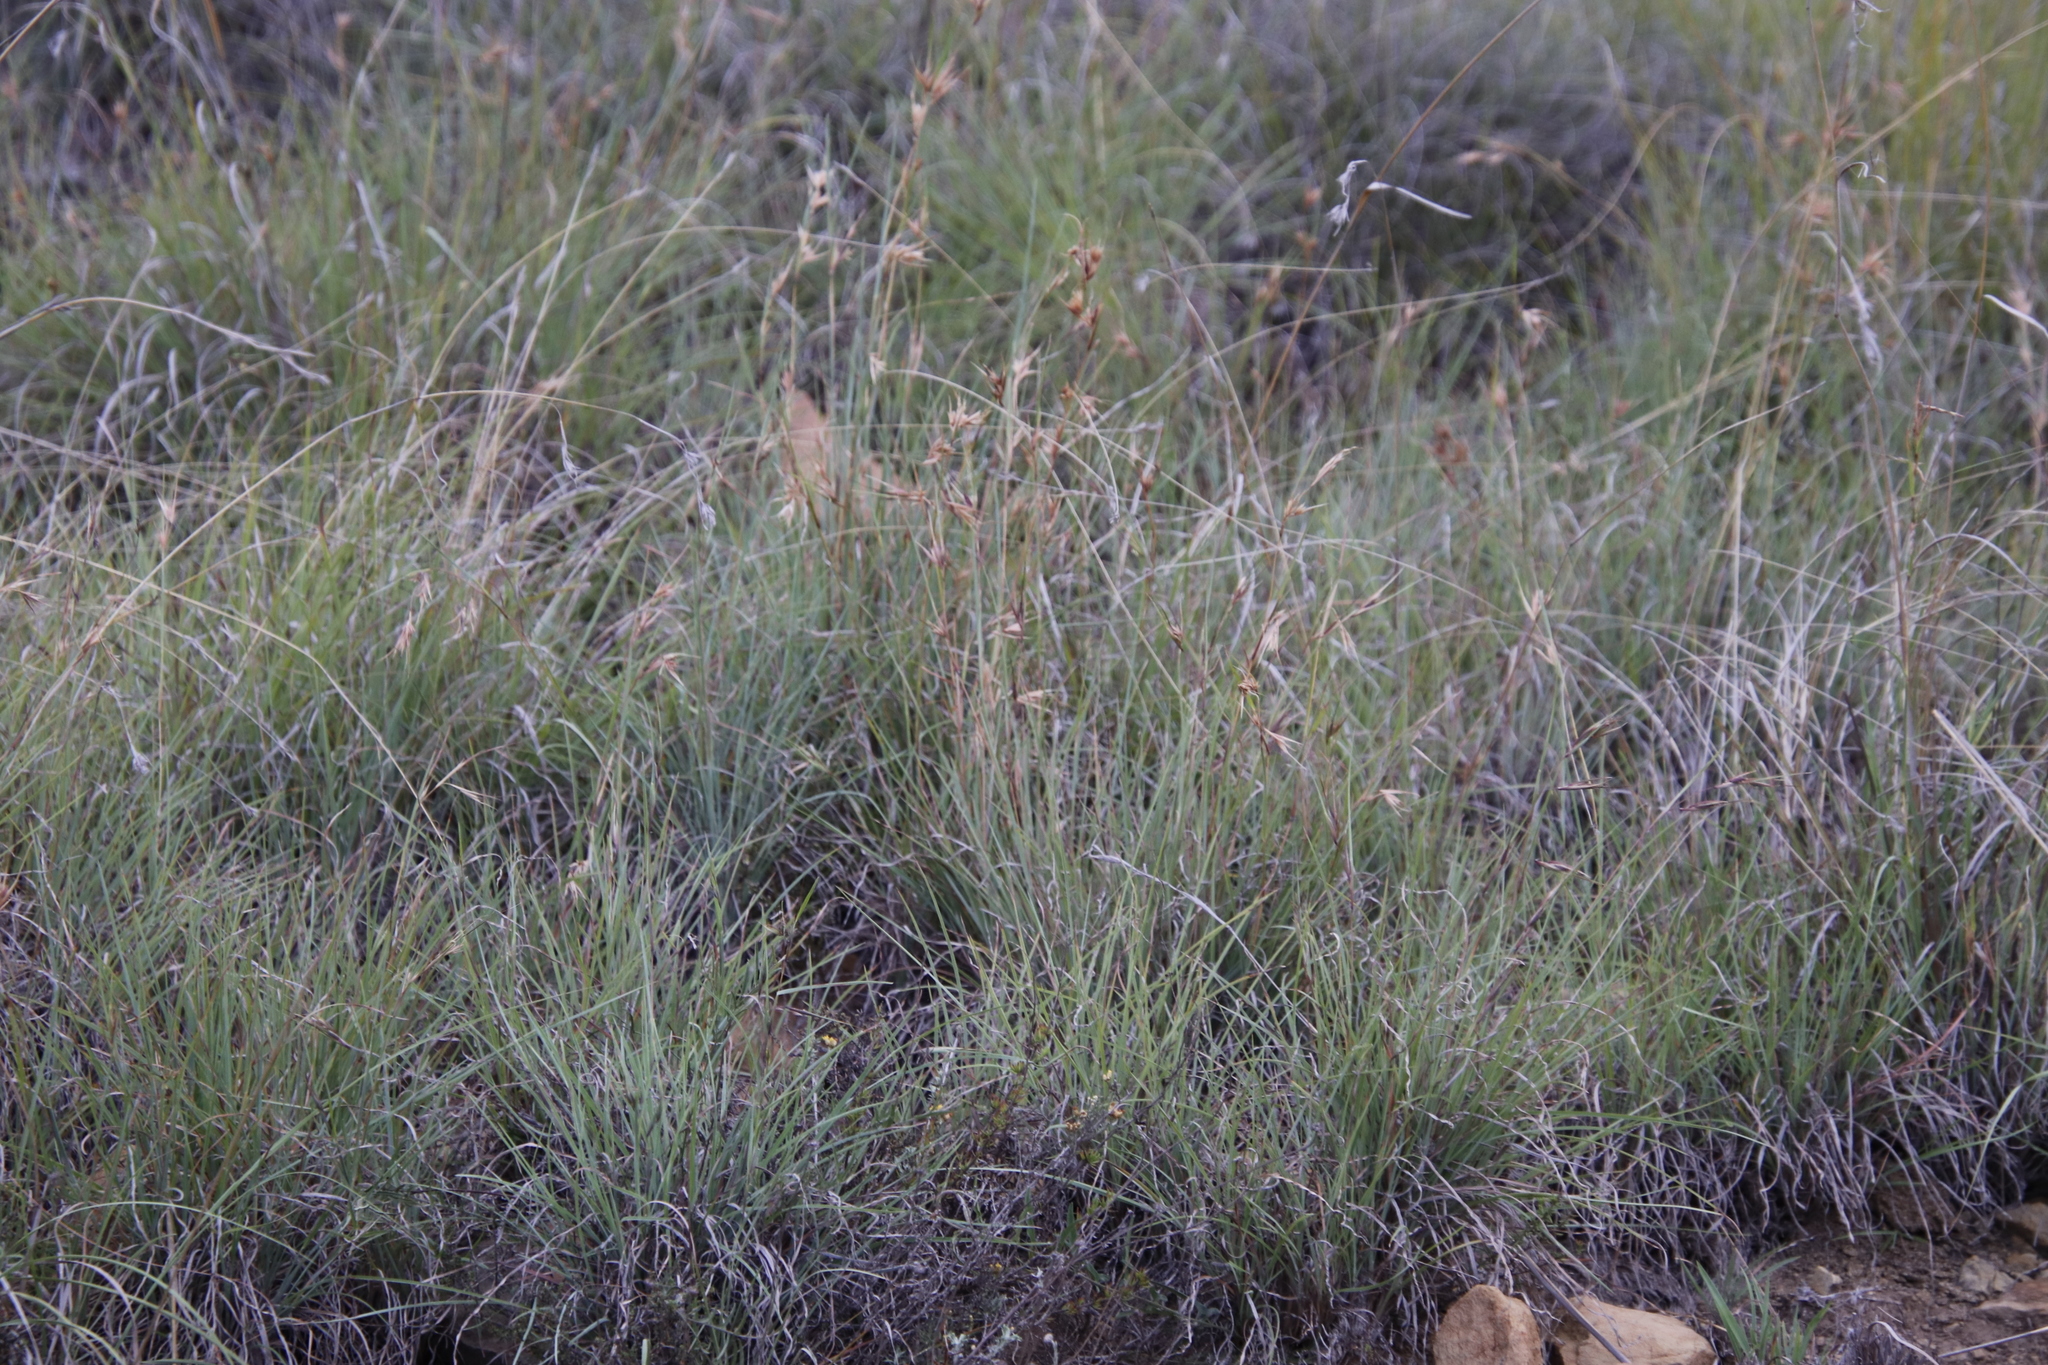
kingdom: Plantae
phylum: Tracheophyta
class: Liliopsida
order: Poales
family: Poaceae
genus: Themeda
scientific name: Themeda triandra
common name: Kangaroo grass
